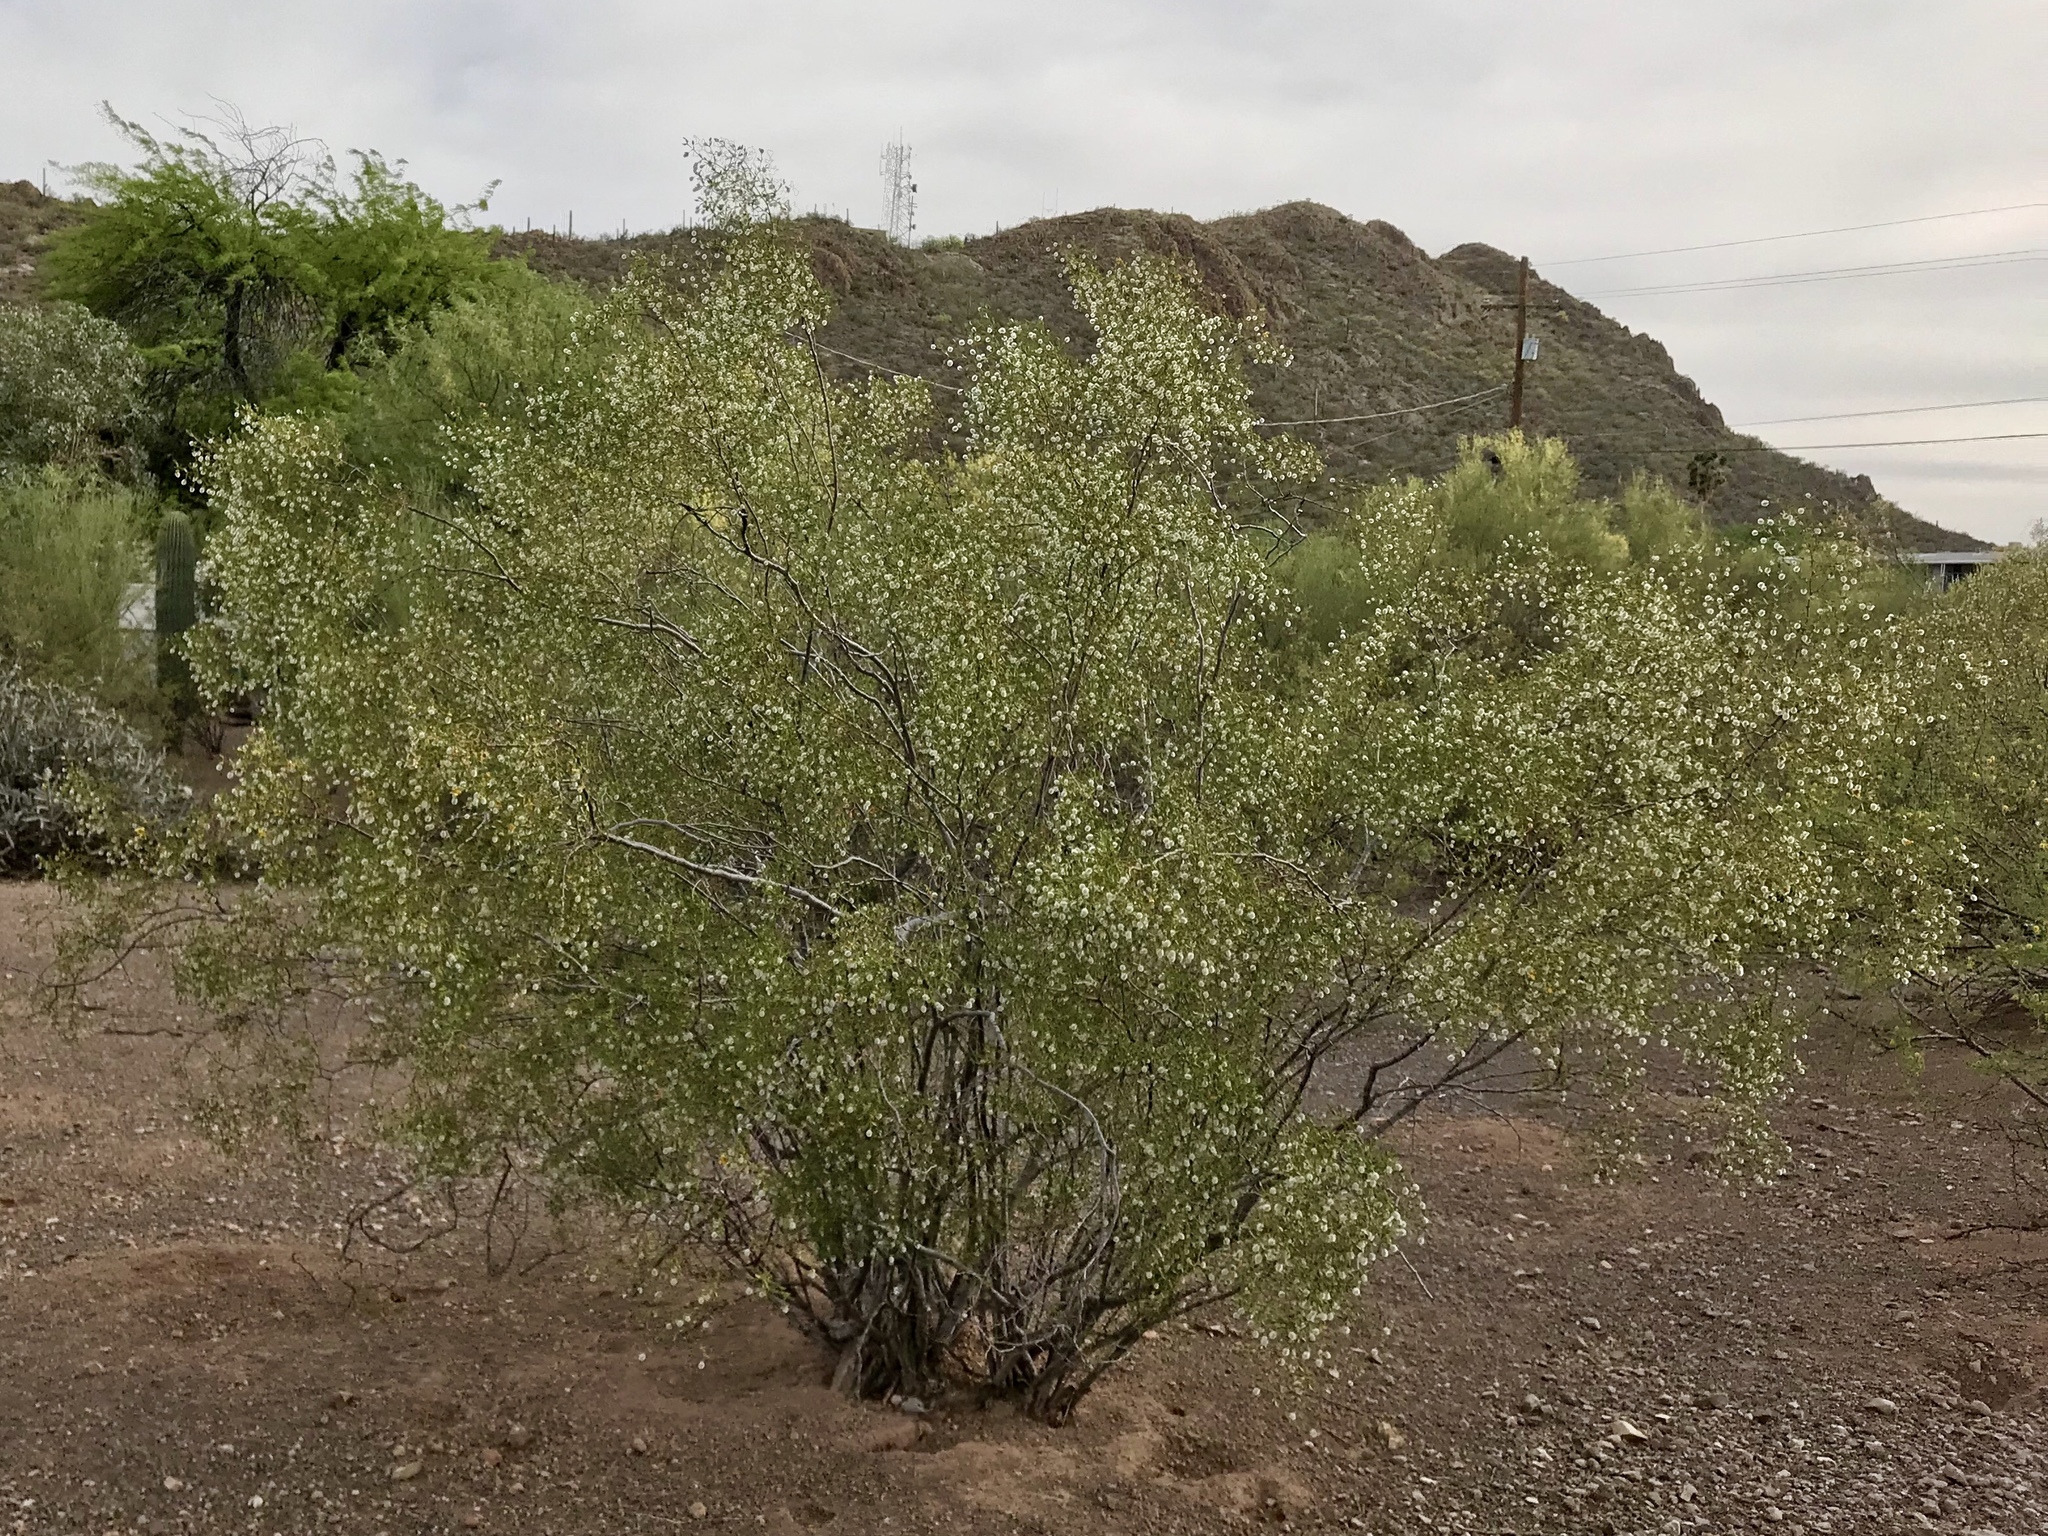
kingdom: Plantae
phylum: Tracheophyta
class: Magnoliopsida
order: Zygophyllales
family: Zygophyllaceae
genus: Larrea
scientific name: Larrea tridentata
